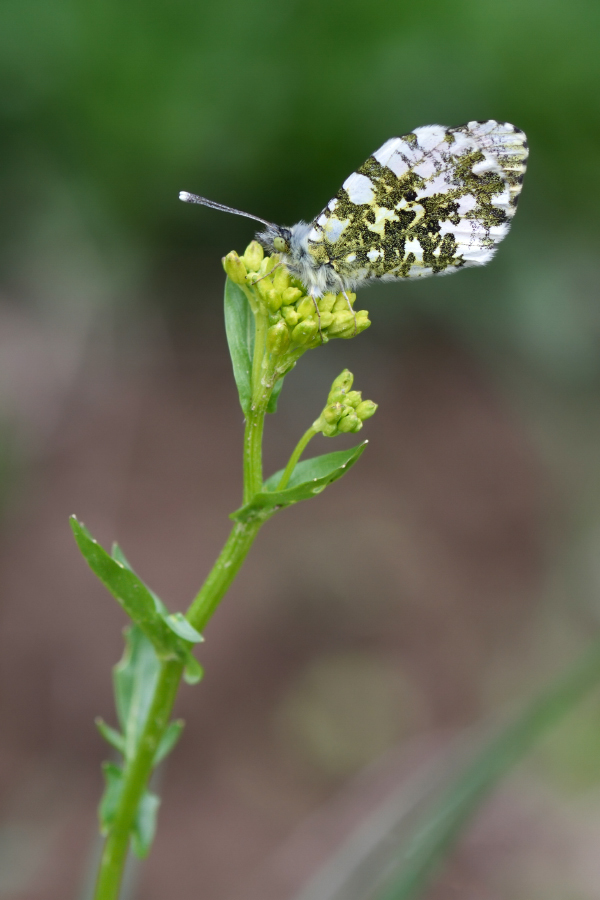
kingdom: Animalia
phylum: Arthropoda
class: Insecta
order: Lepidoptera
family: Pieridae
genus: Anthocharis
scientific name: Anthocharis cardamines
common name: Orange-tip
